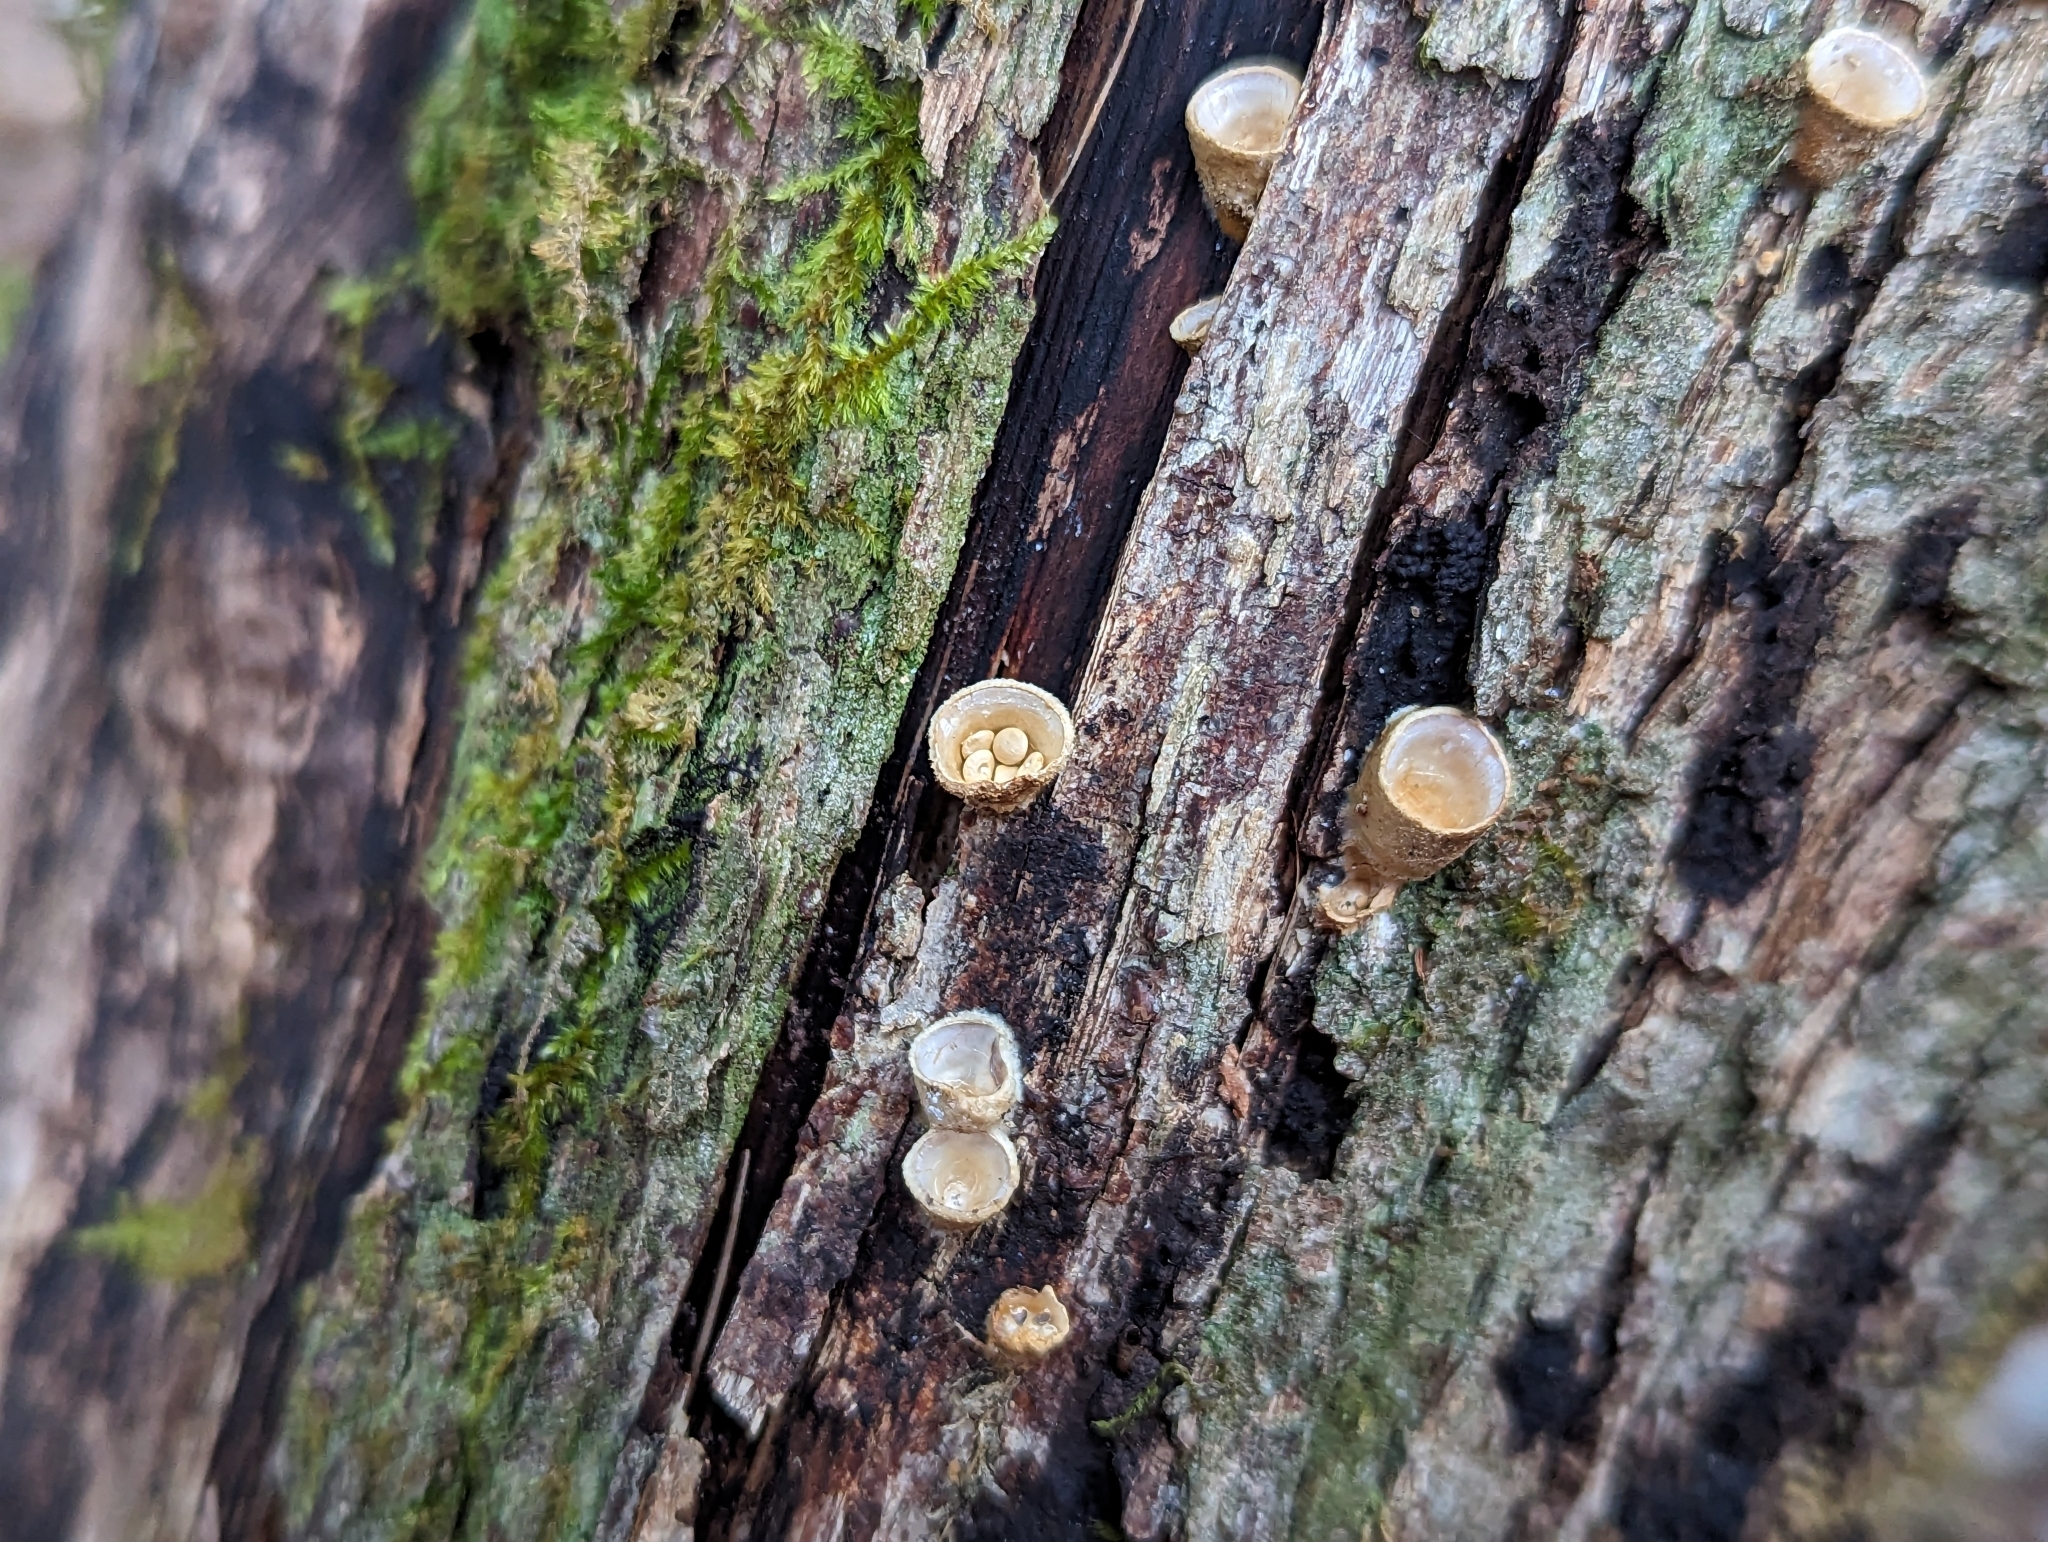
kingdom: Fungi
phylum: Basidiomycota
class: Agaricomycetes
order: Agaricales
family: Nidulariaceae
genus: Crucibulum
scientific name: Crucibulum laeve
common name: Common bird's nest
